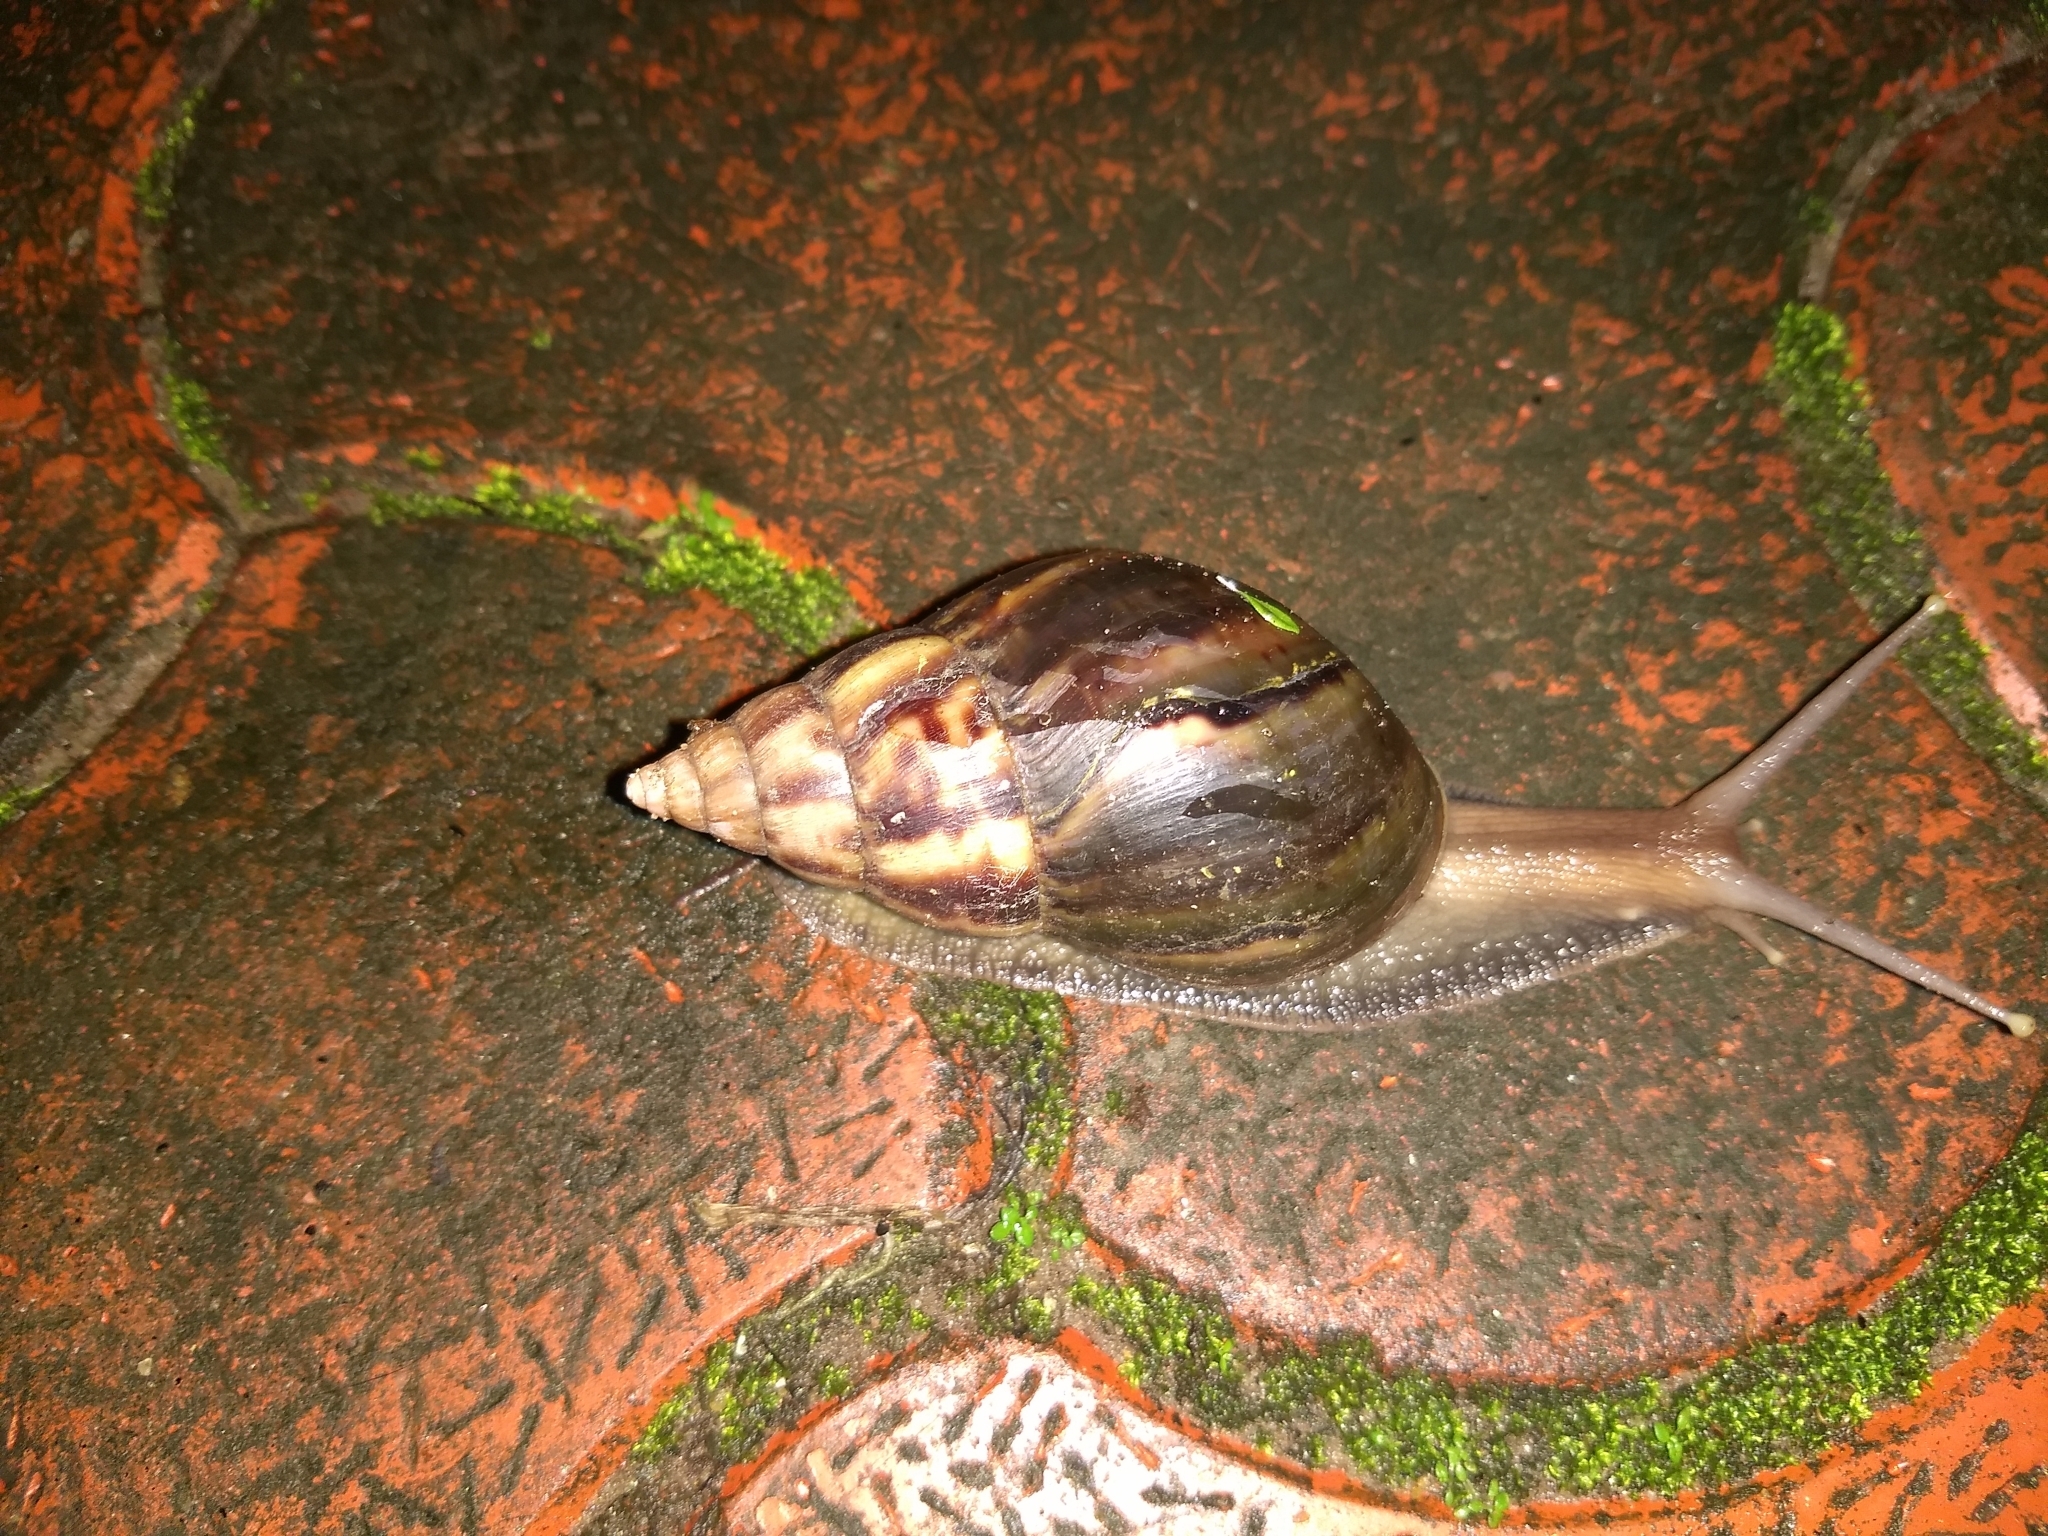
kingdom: Animalia
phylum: Mollusca
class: Gastropoda
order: Stylommatophora
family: Achatinidae
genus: Lissachatina
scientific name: Lissachatina fulica
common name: Giant african snail
